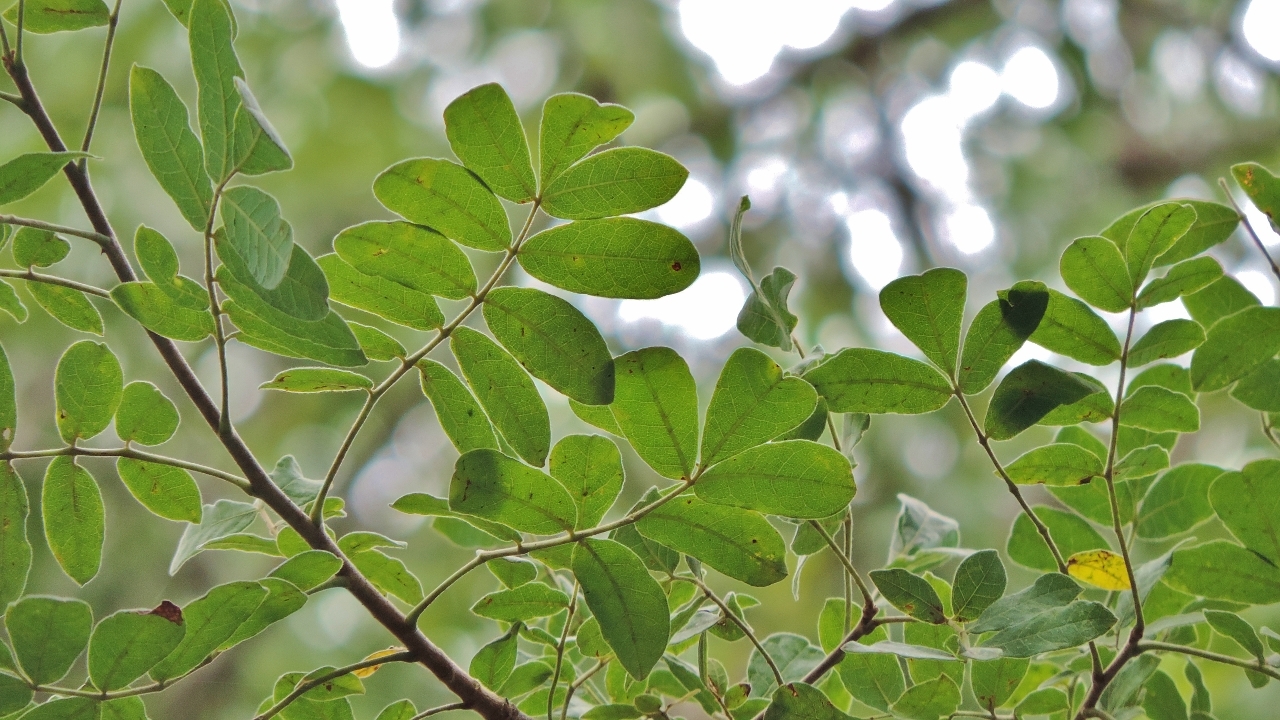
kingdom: Plantae
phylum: Tracheophyta
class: Magnoliopsida
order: Sapindales
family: Burseraceae
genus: Commiphora
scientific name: Commiphora mollis
